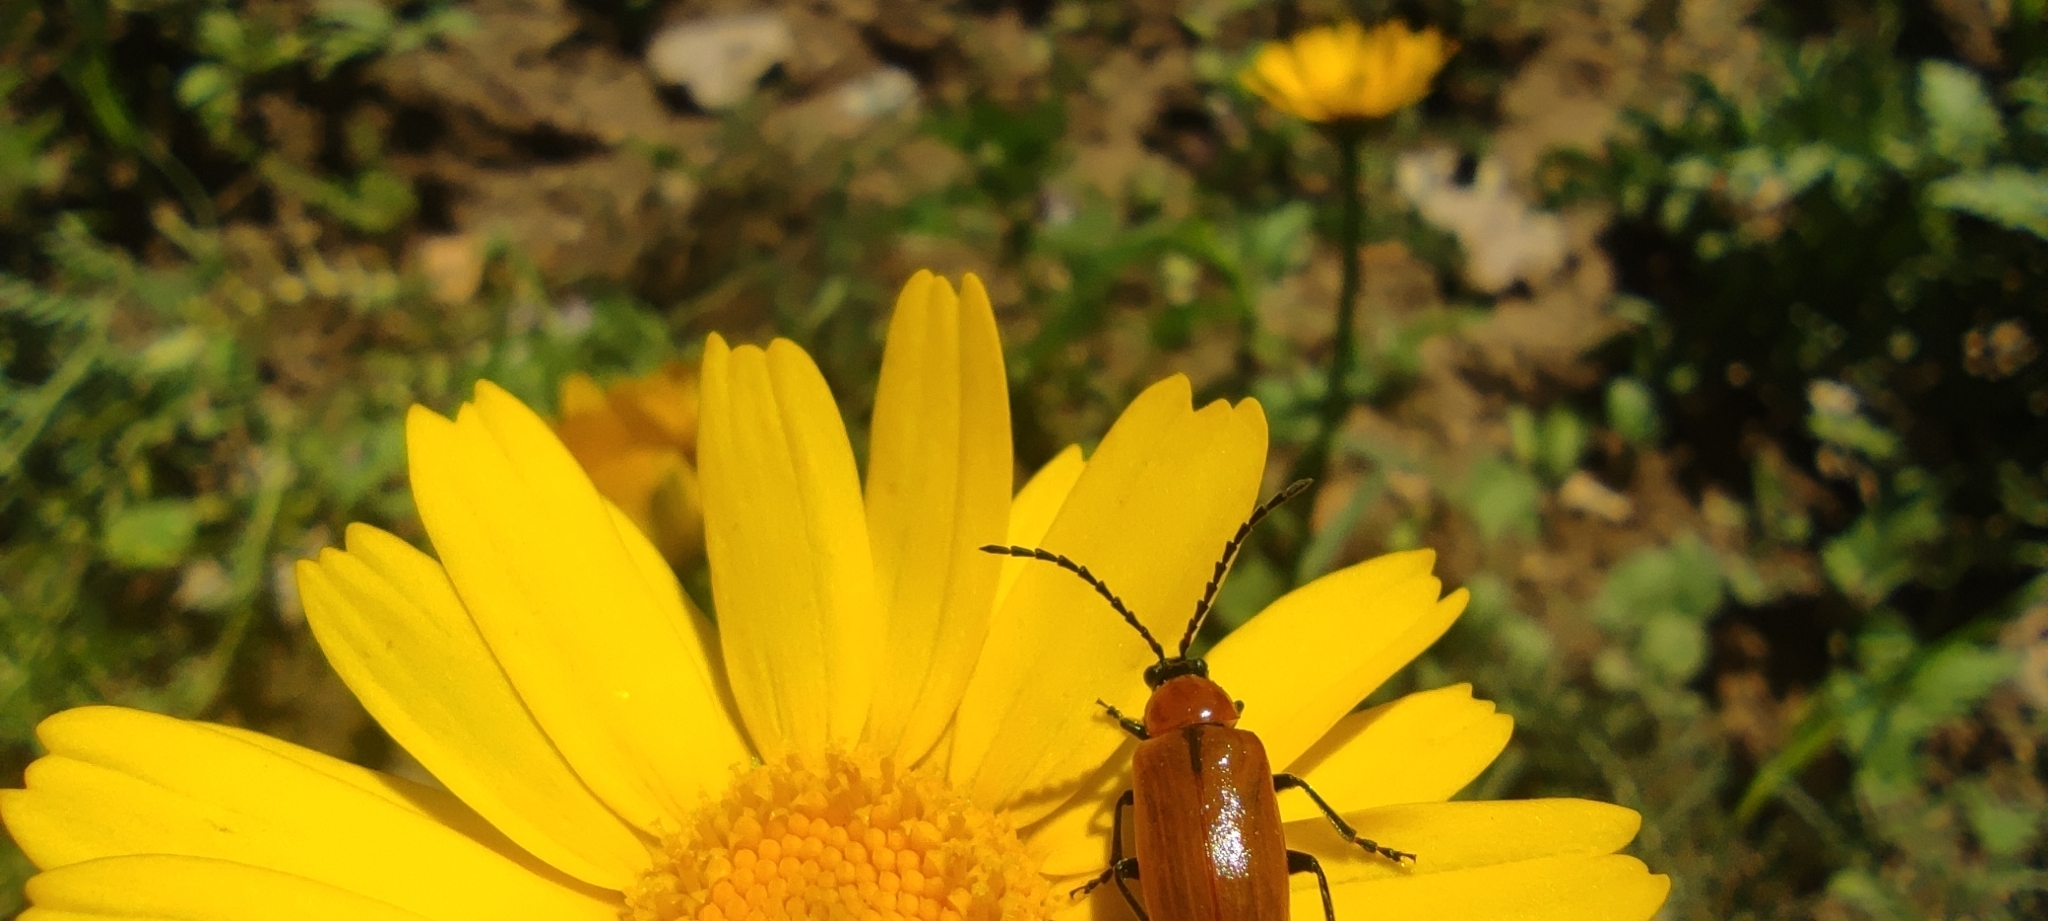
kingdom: Animalia
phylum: Arthropoda
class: Insecta
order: Coleoptera
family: Chrysomelidae
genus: Exosoma
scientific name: Exosoma lusitanicum
